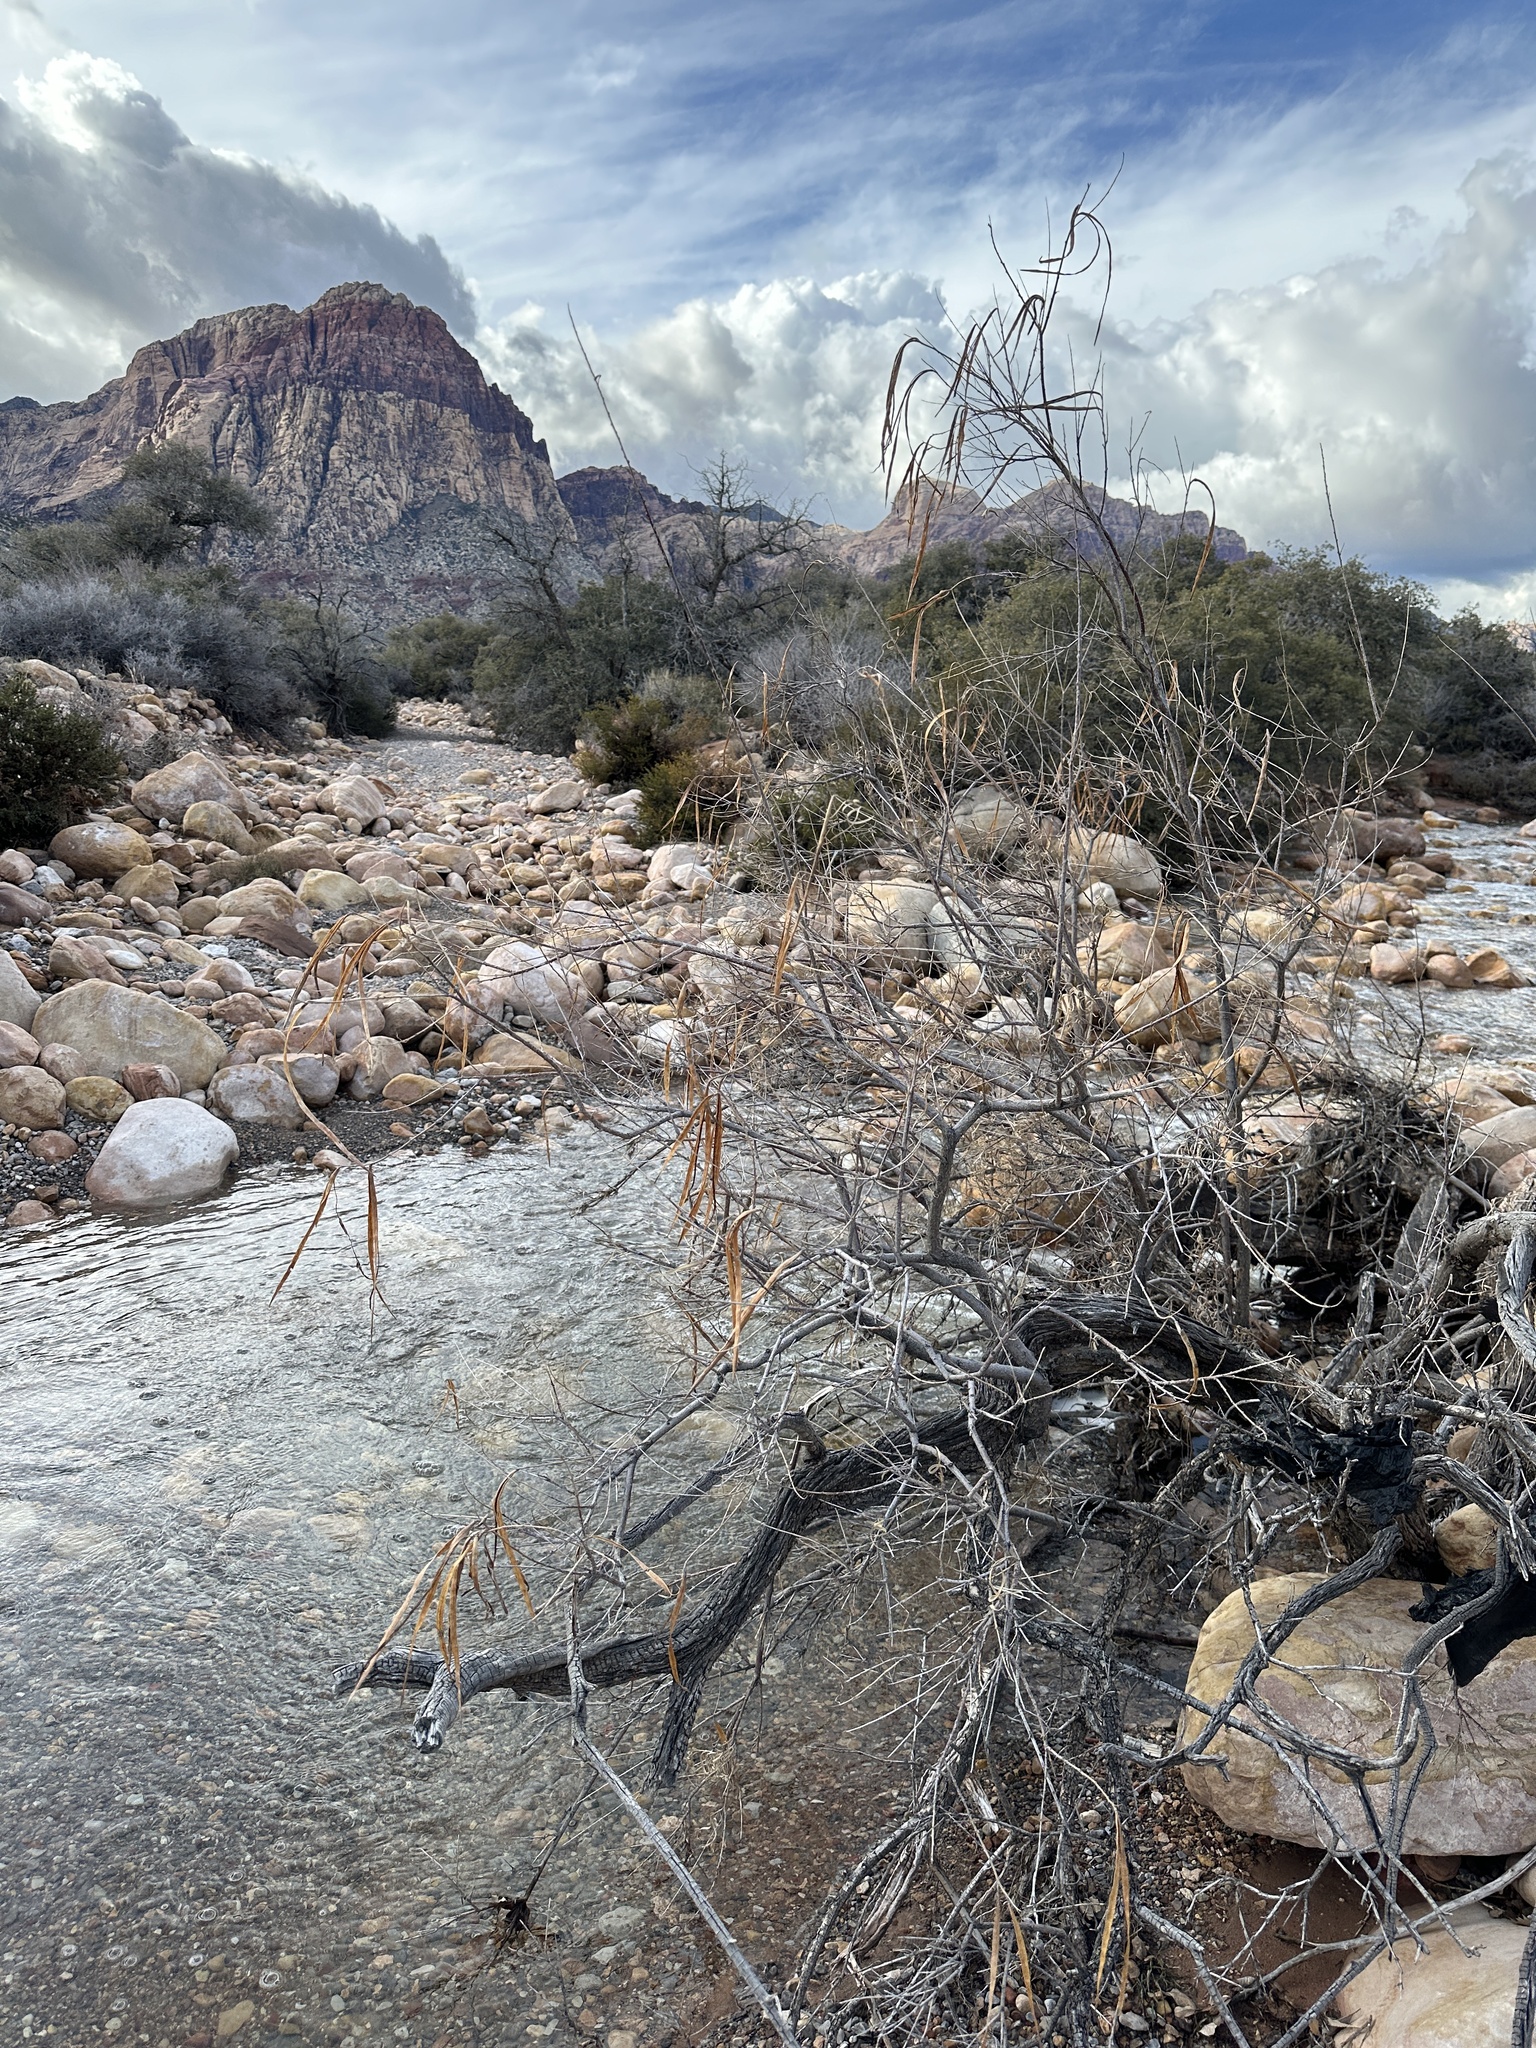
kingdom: Plantae
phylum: Tracheophyta
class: Magnoliopsida
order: Lamiales
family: Bignoniaceae
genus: Chilopsis
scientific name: Chilopsis linearis
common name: Desert-willow
